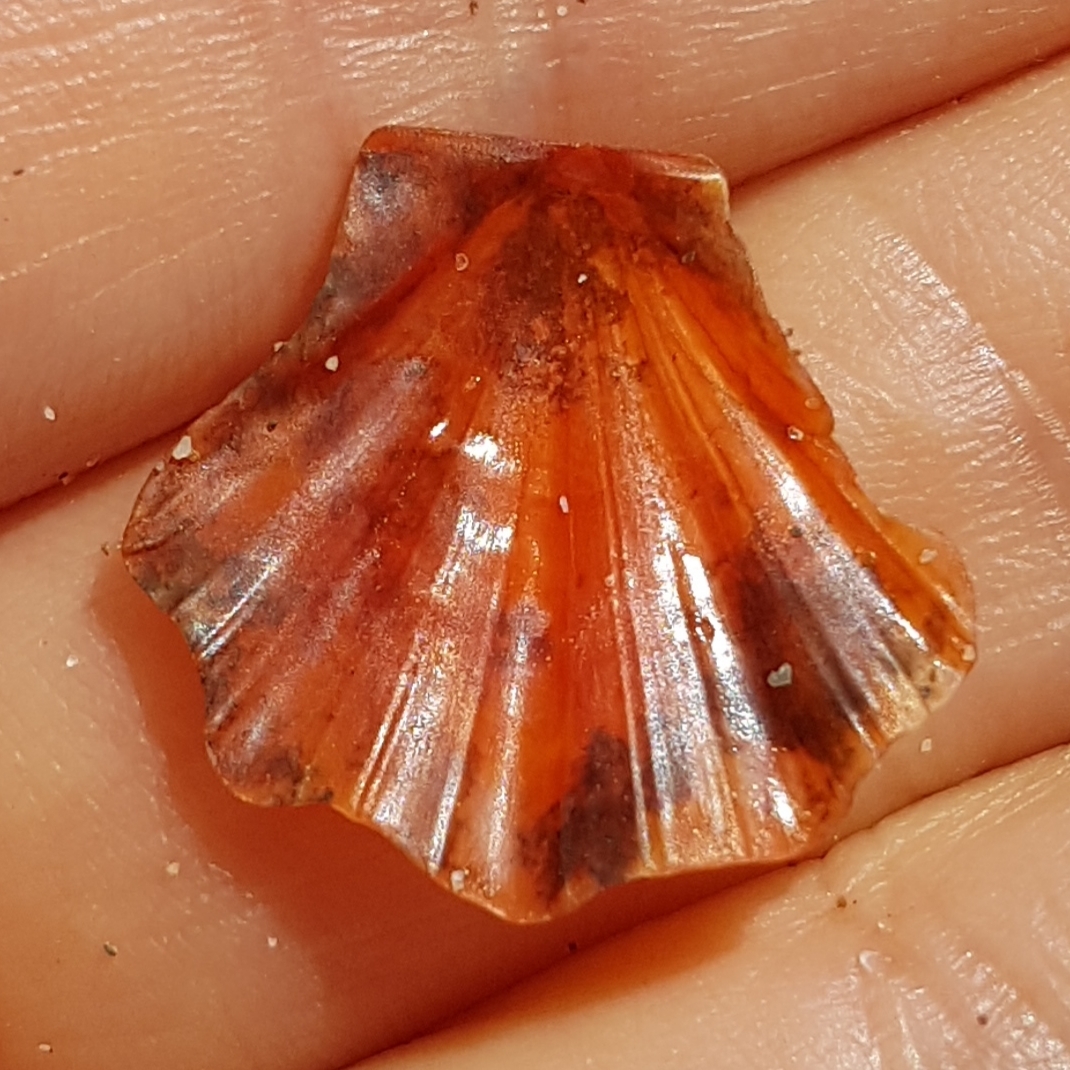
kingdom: Animalia
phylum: Mollusca
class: Bivalvia
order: Pectinida
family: Pectinidae
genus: Flexopecten
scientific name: Flexopecten flexuosus
